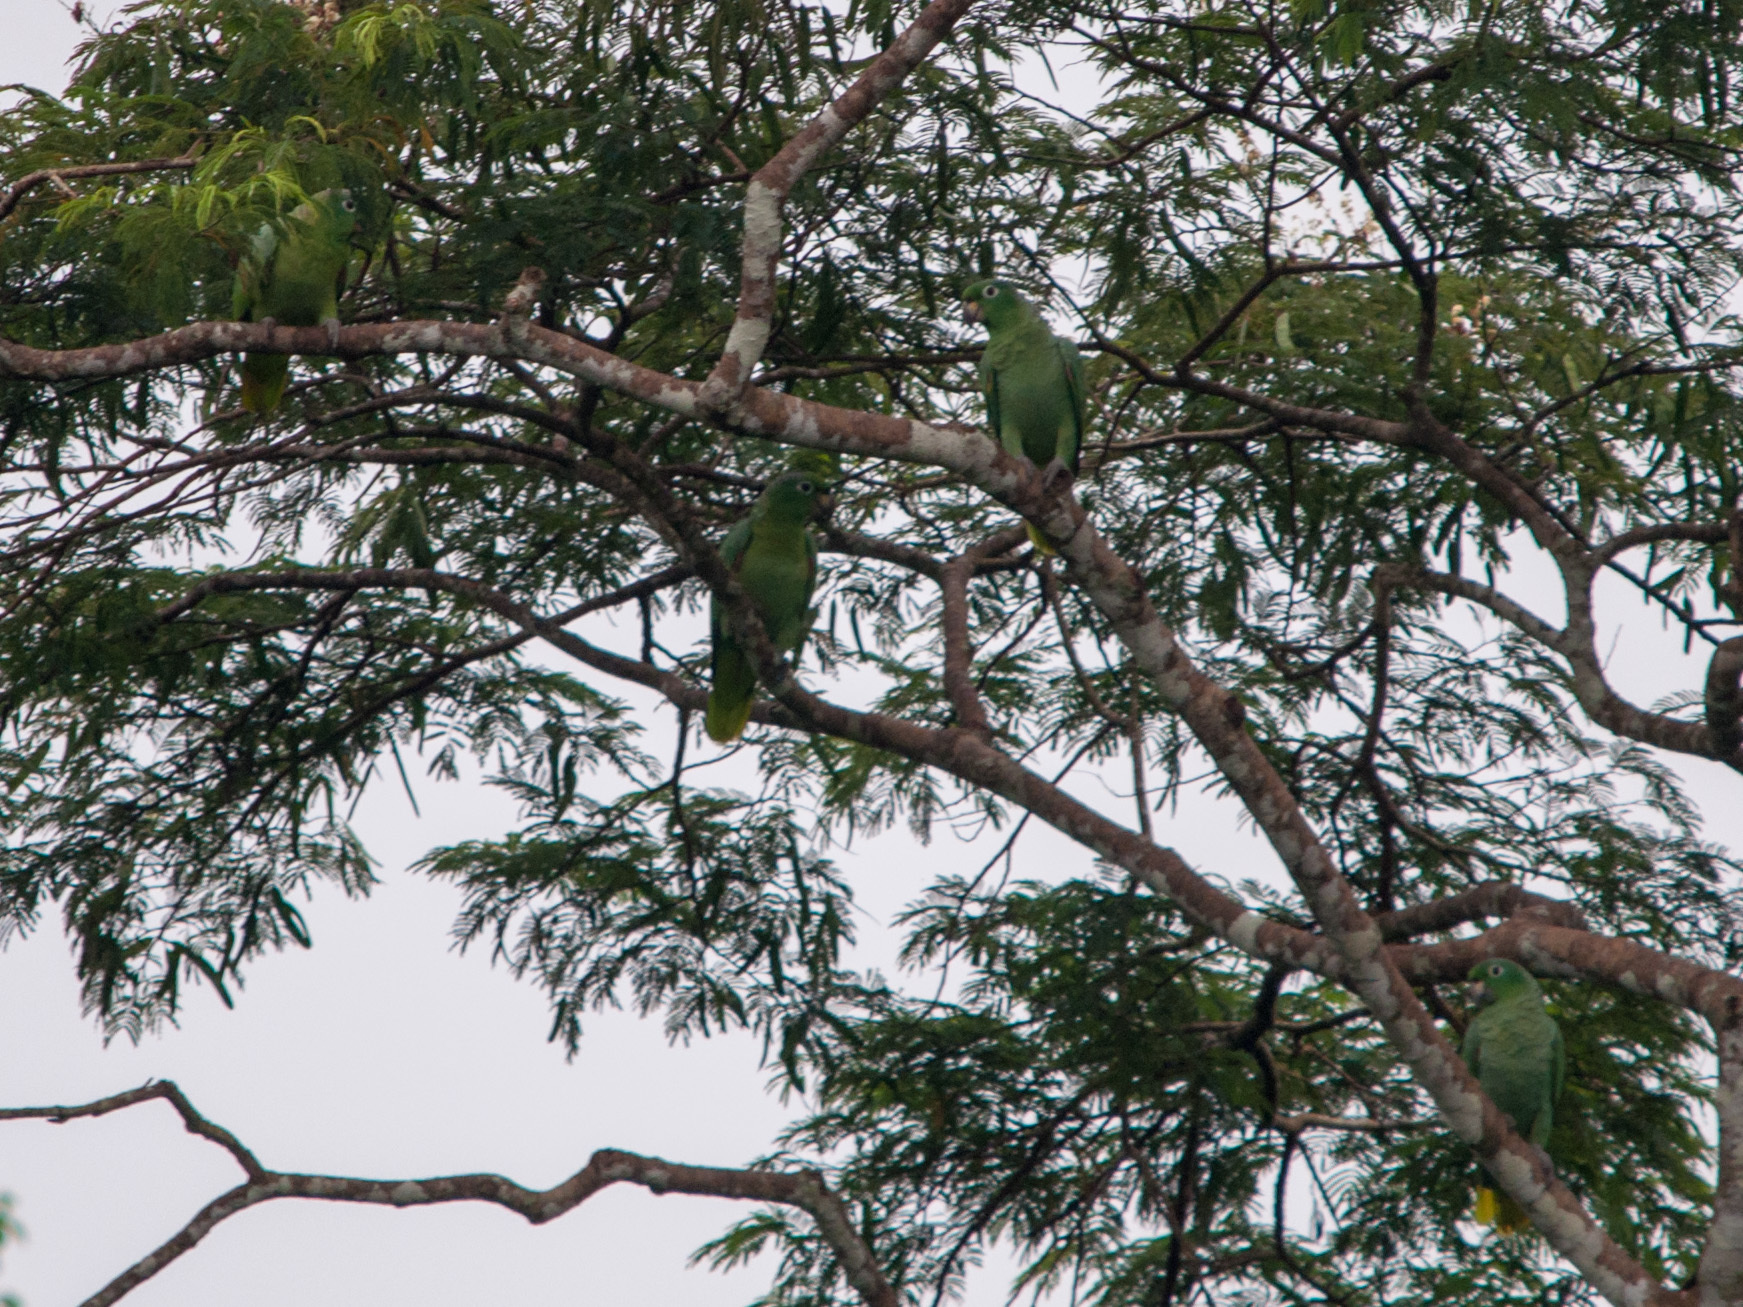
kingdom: Animalia
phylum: Chordata
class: Aves
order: Psittaciformes
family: Psittacidae
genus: Amazona
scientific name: Amazona farinosa
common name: Mealy parrot
